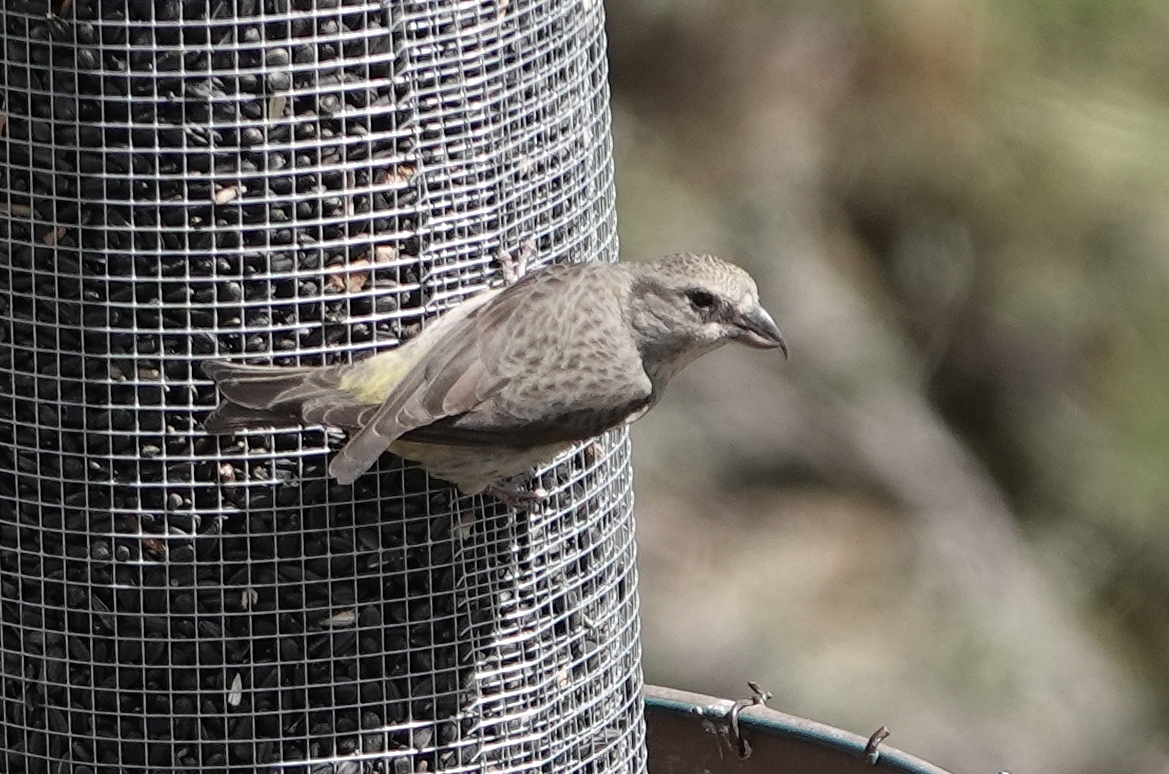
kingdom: Animalia
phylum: Chordata
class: Aves
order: Passeriformes
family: Fringillidae
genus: Loxia
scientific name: Loxia curvirostra
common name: Red crossbill
